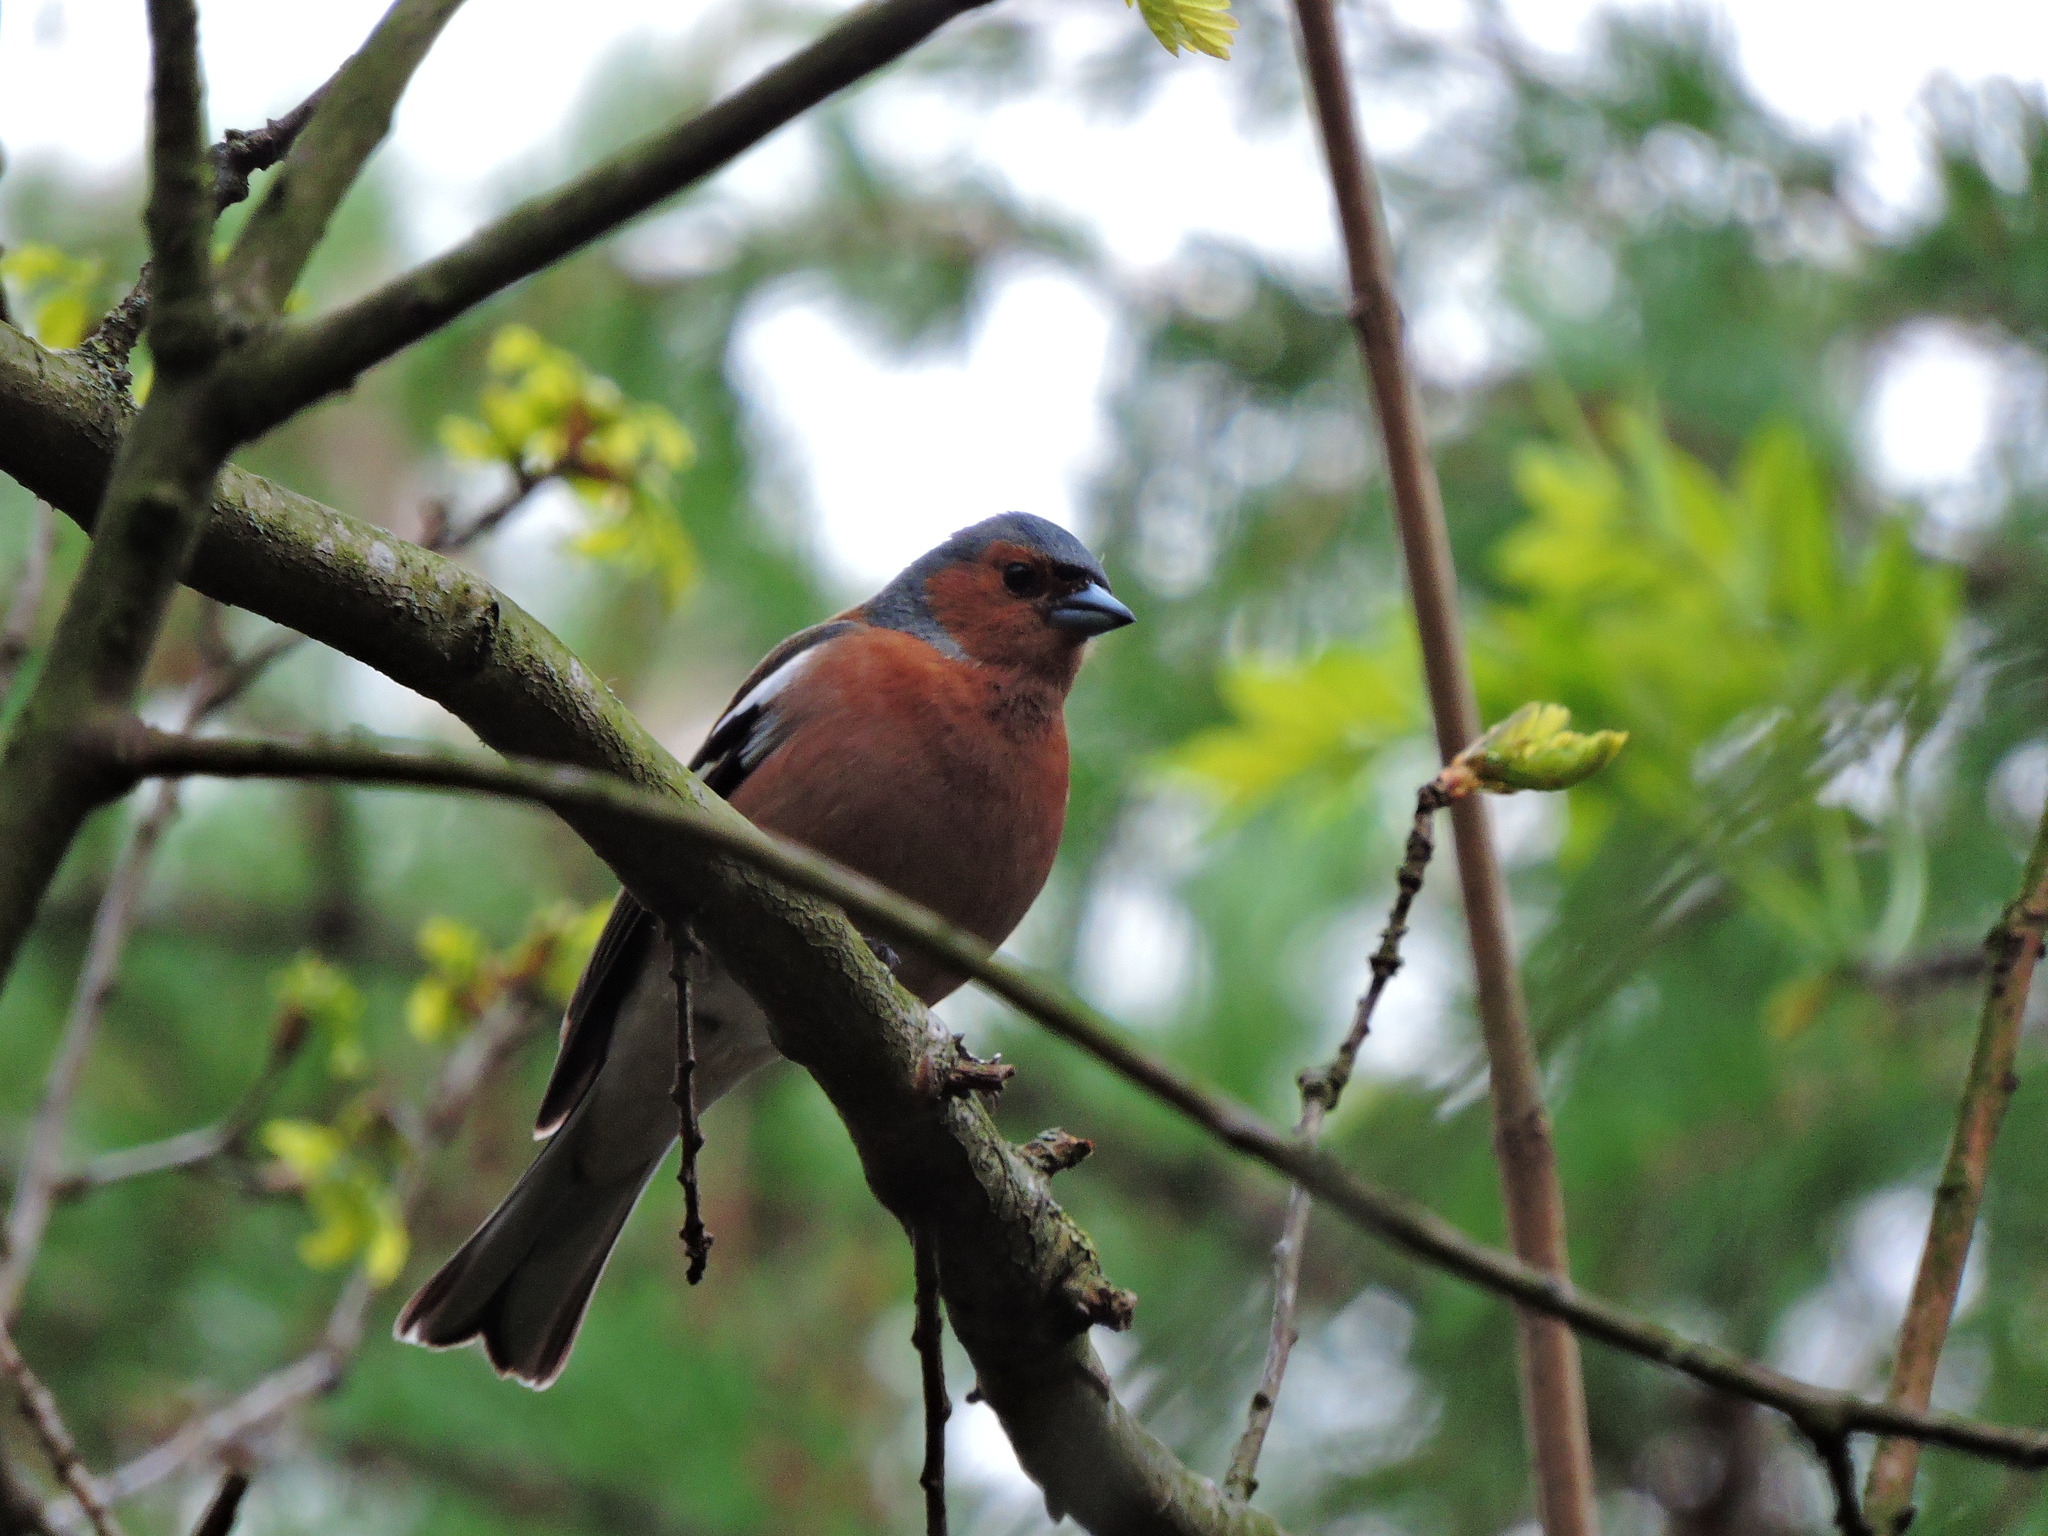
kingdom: Animalia
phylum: Chordata
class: Aves
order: Passeriformes
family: Fringillidae
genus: Fringilla
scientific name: Fringilla coelebs
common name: Common chaffinch
